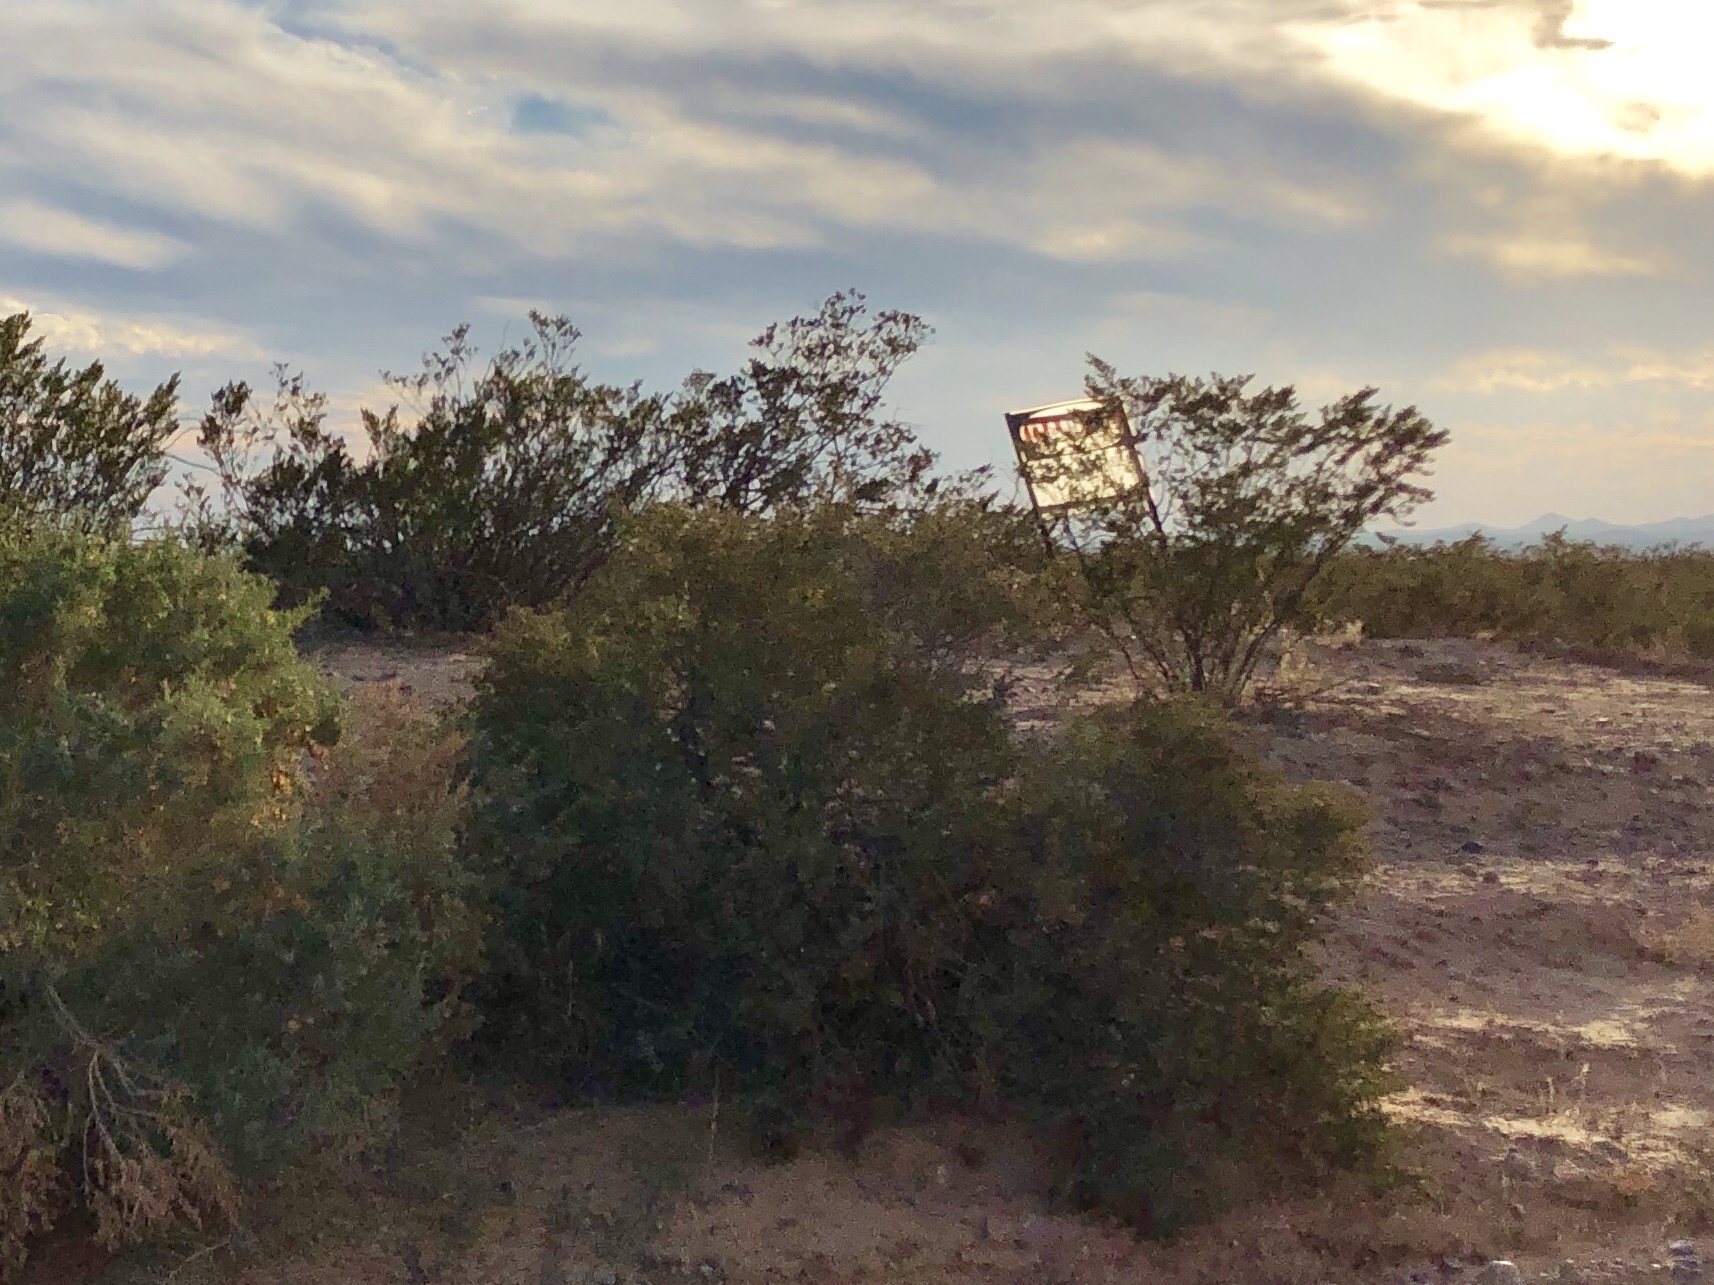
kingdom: Plantae
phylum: Tracheophyta
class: Magnoliopsida
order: Zygophyllales
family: Zygophyllaceae
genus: Larrea
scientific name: Larrea tridentata
